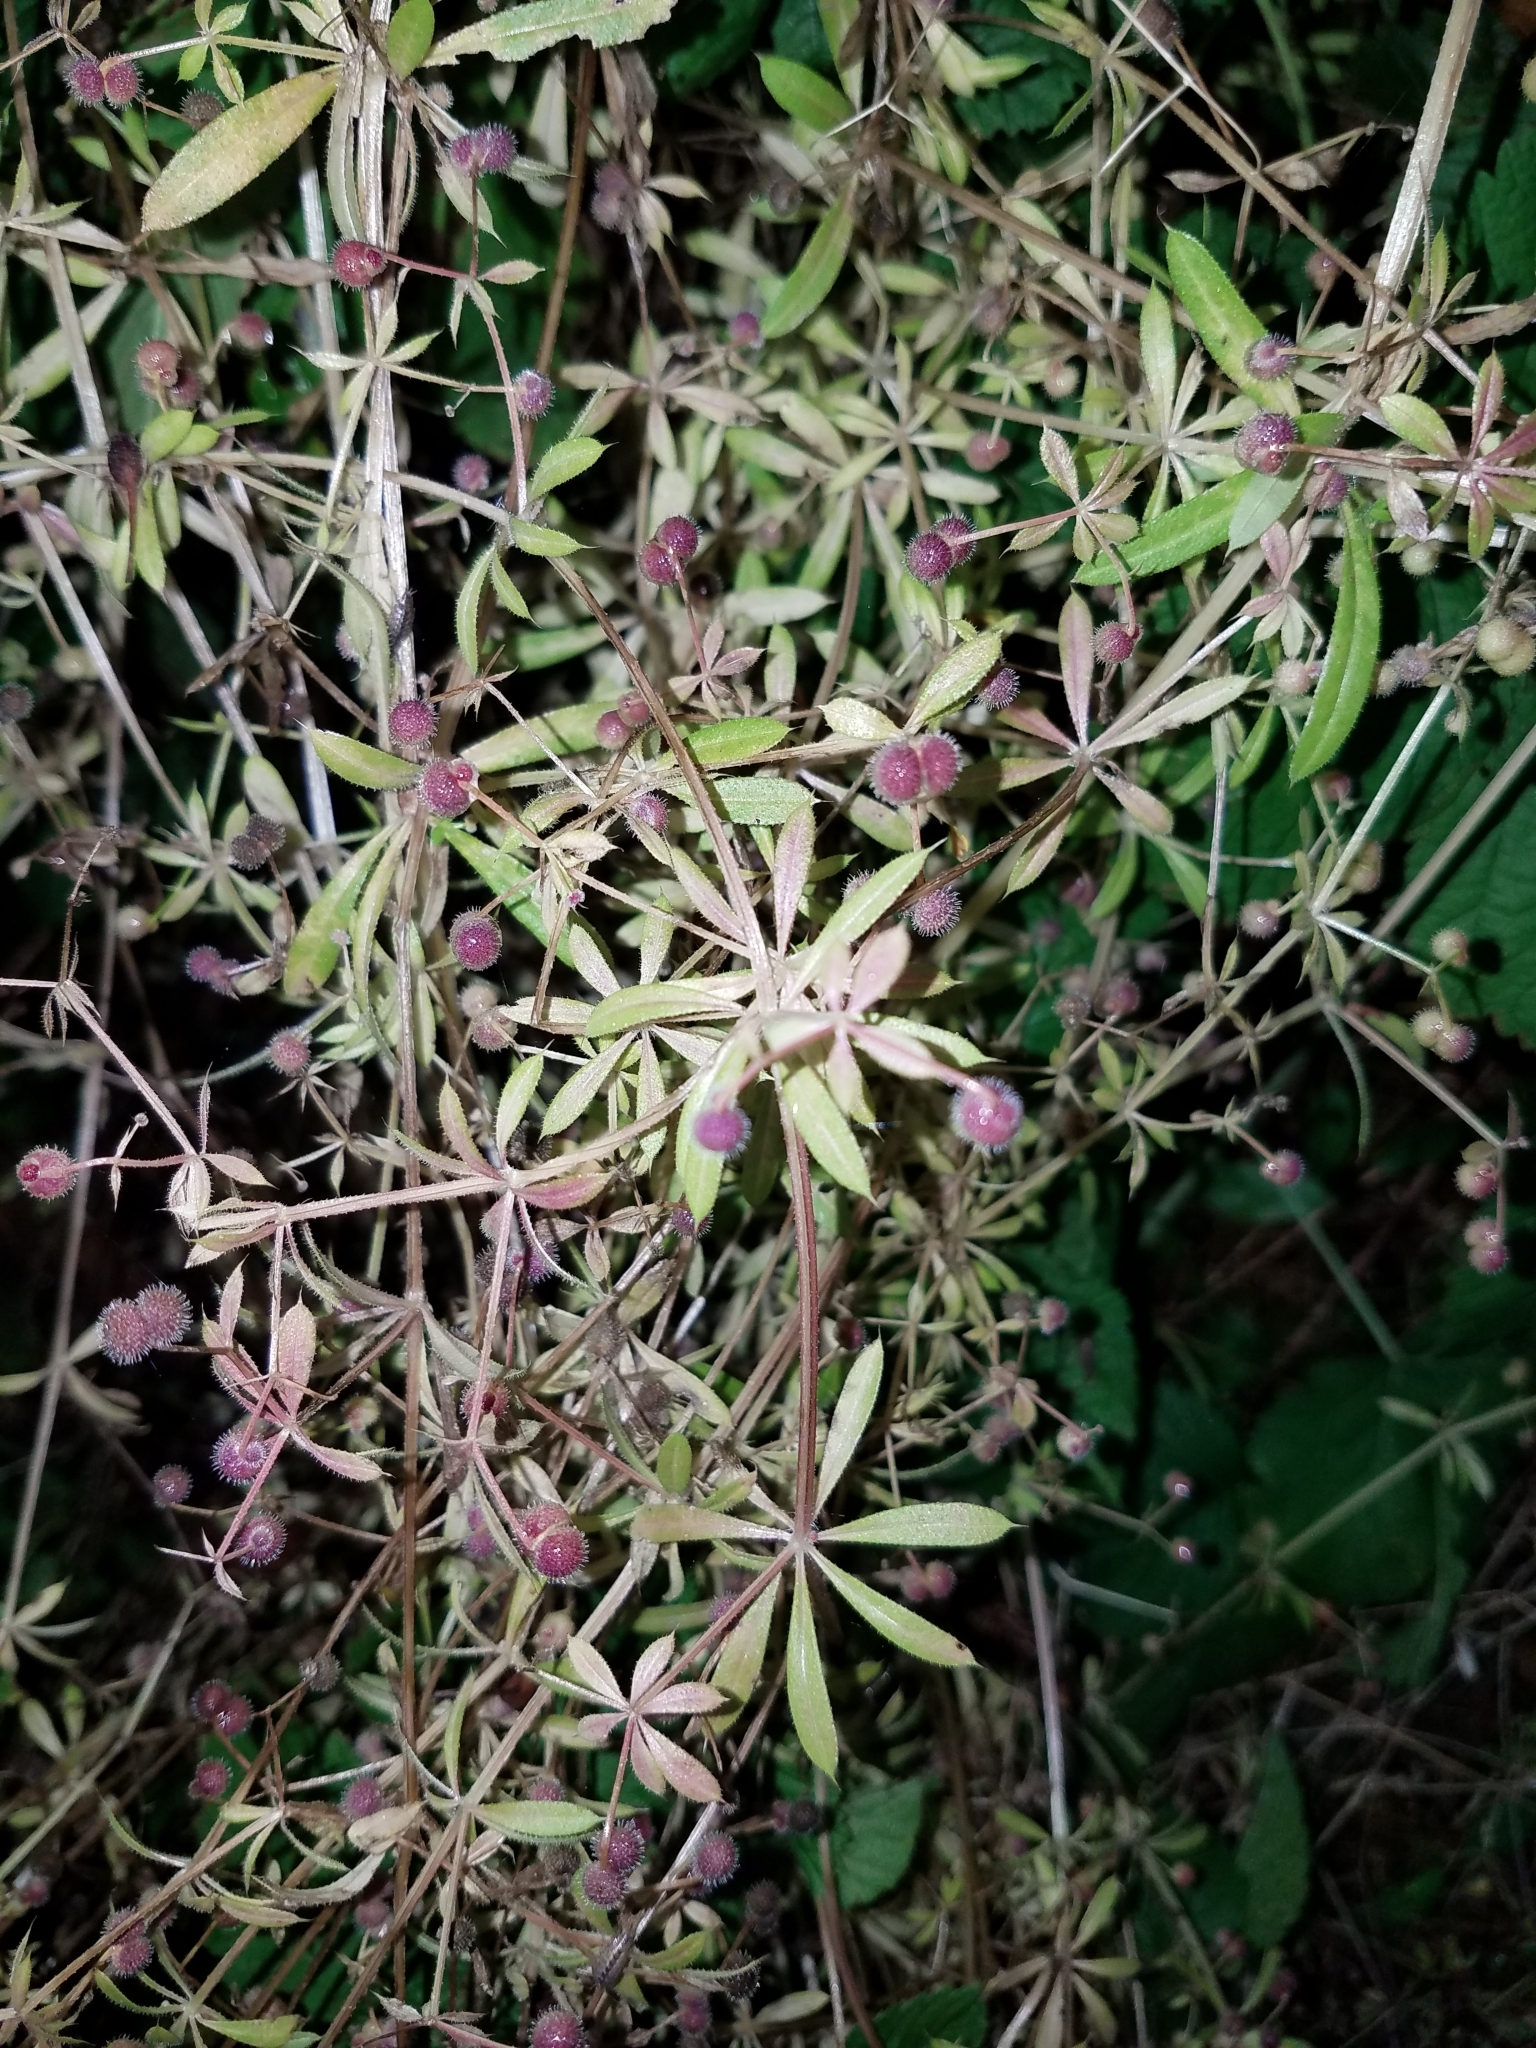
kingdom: Plantae
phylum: Tracheophyta
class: Magnoliopsida
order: Gentianales
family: Rubiaceae
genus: Galium
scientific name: Galium aparine
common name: Cleavers
